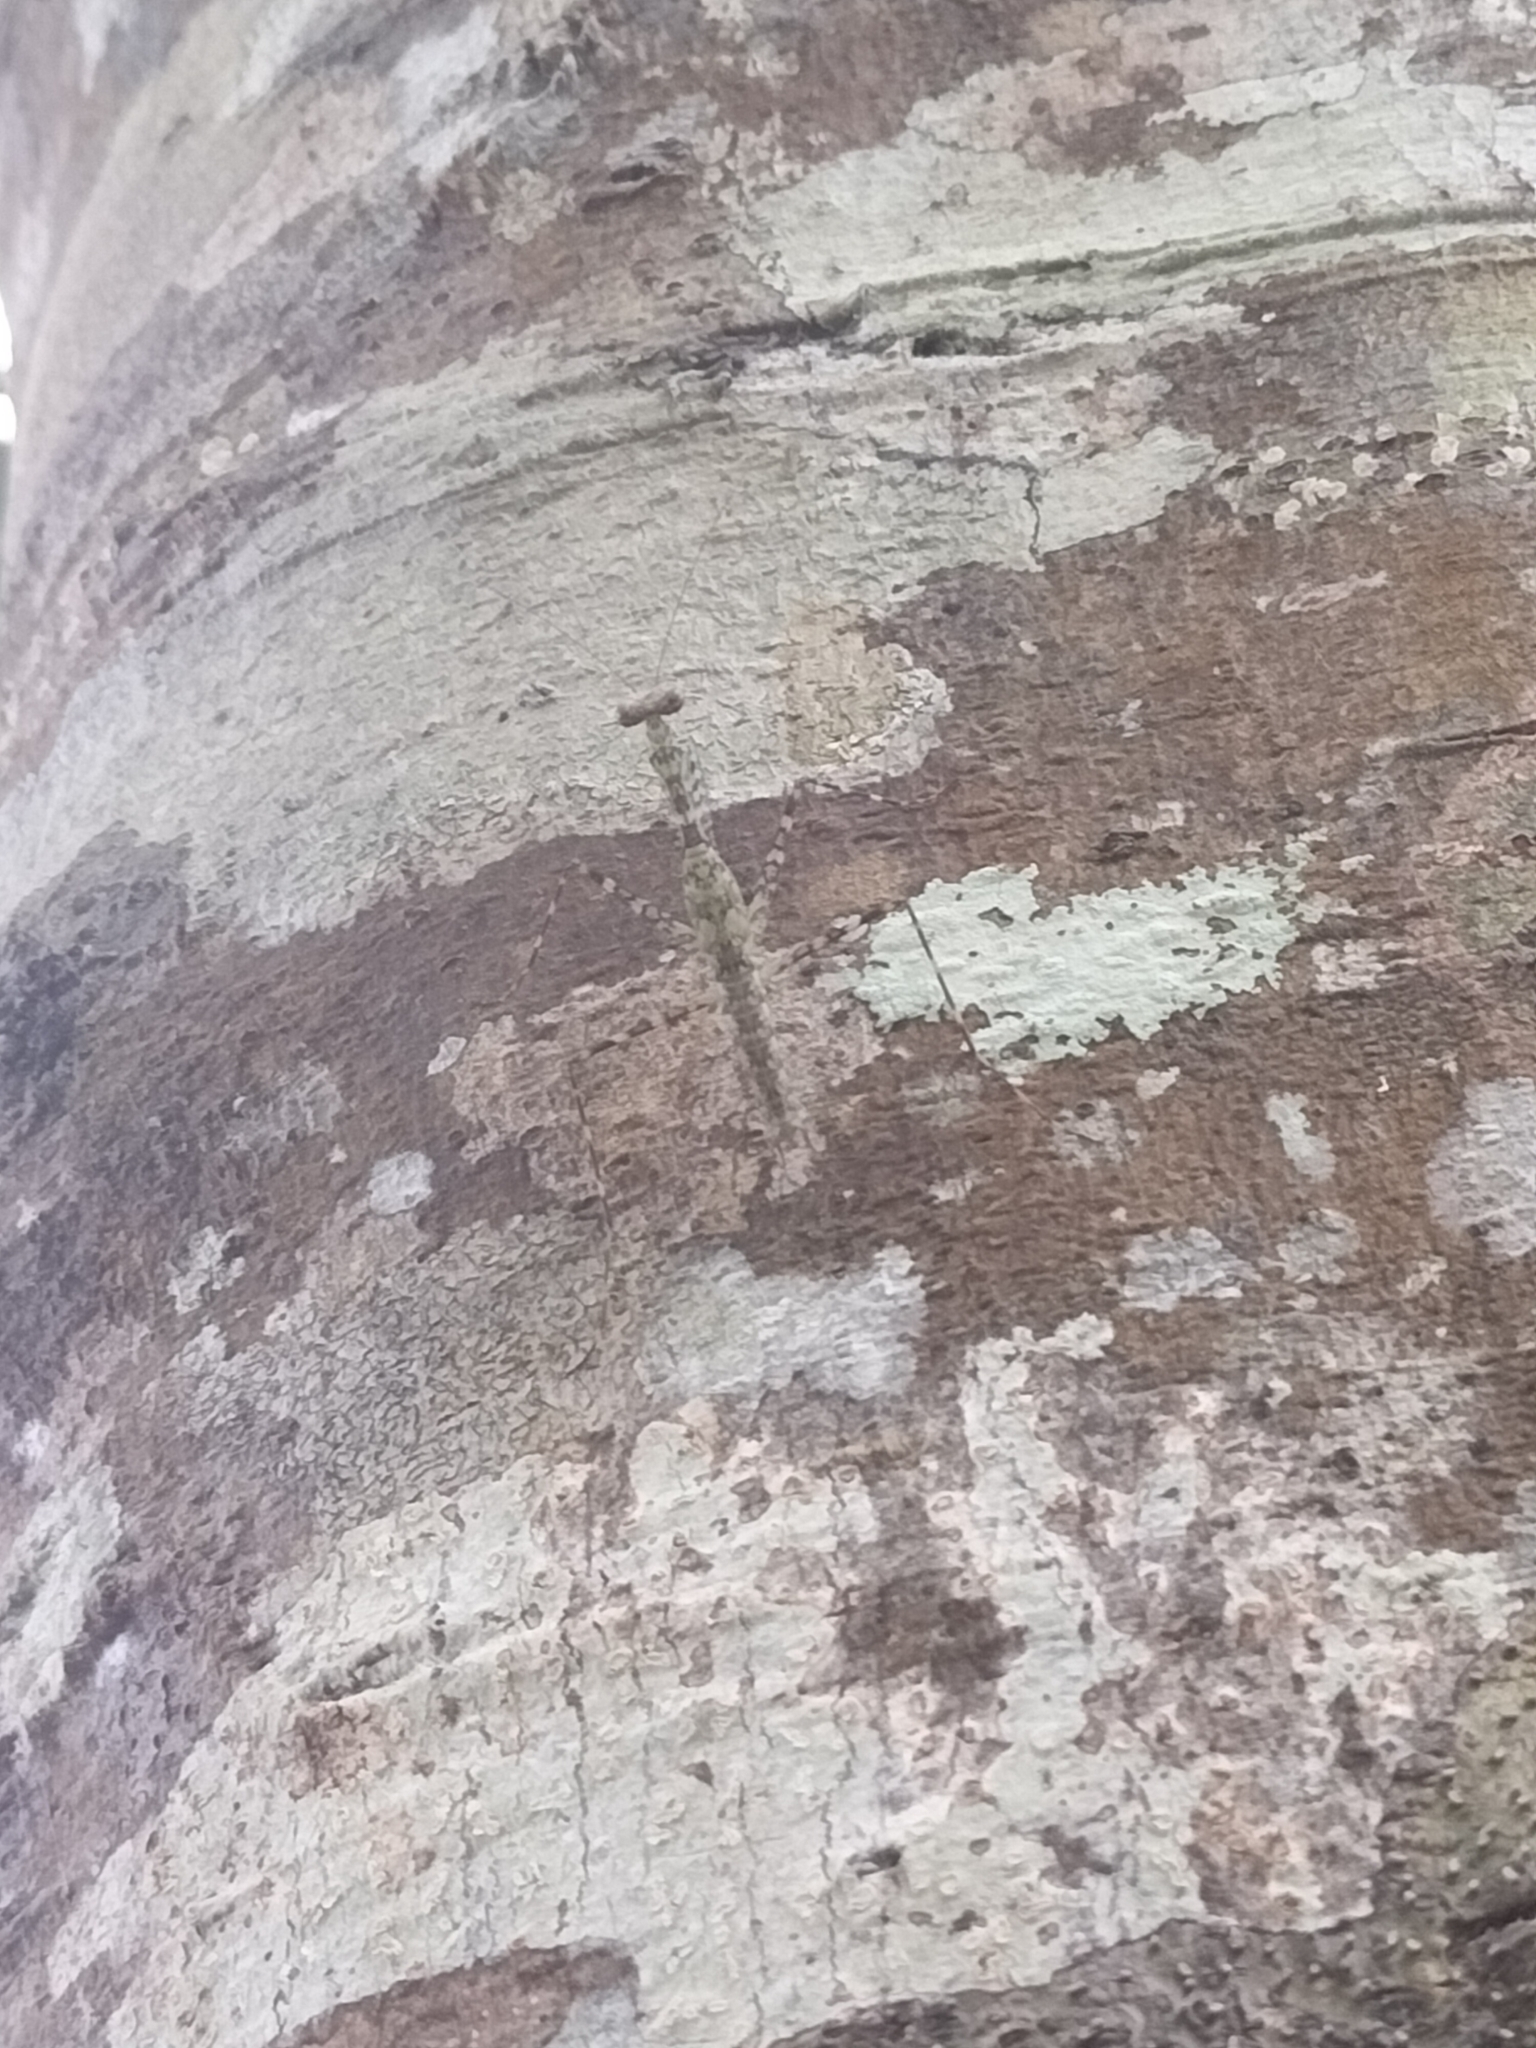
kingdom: Animalia
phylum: Arthropoda
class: Insecta
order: Mantodea
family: Nanomantidae
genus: Ciulfina
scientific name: Ciulfina rentzi
